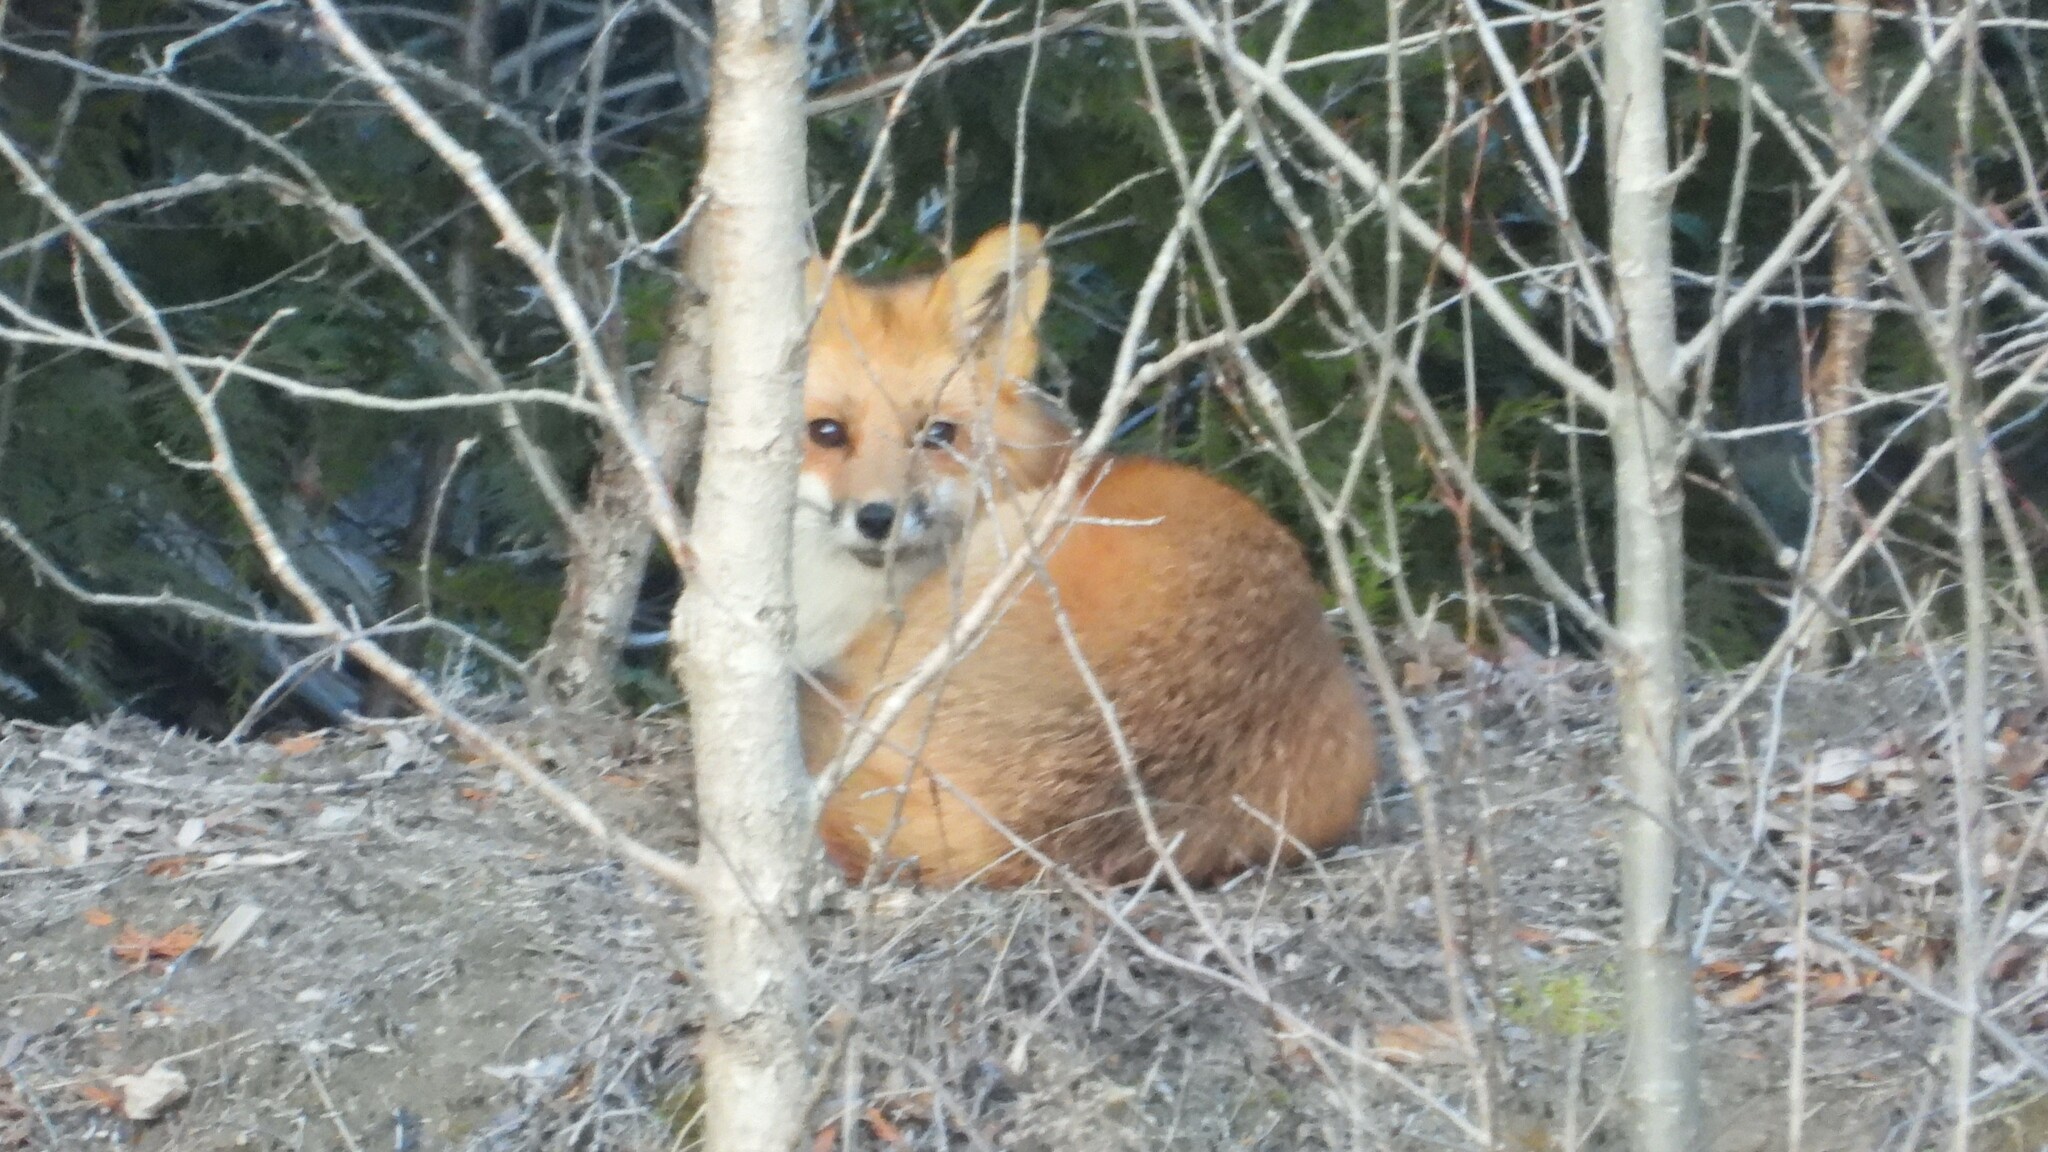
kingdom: Animalia
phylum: Chordata
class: Mammalia
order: Carnivora
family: Canidae
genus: Vulpes
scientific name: Vulpes vulpes
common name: Red fox
